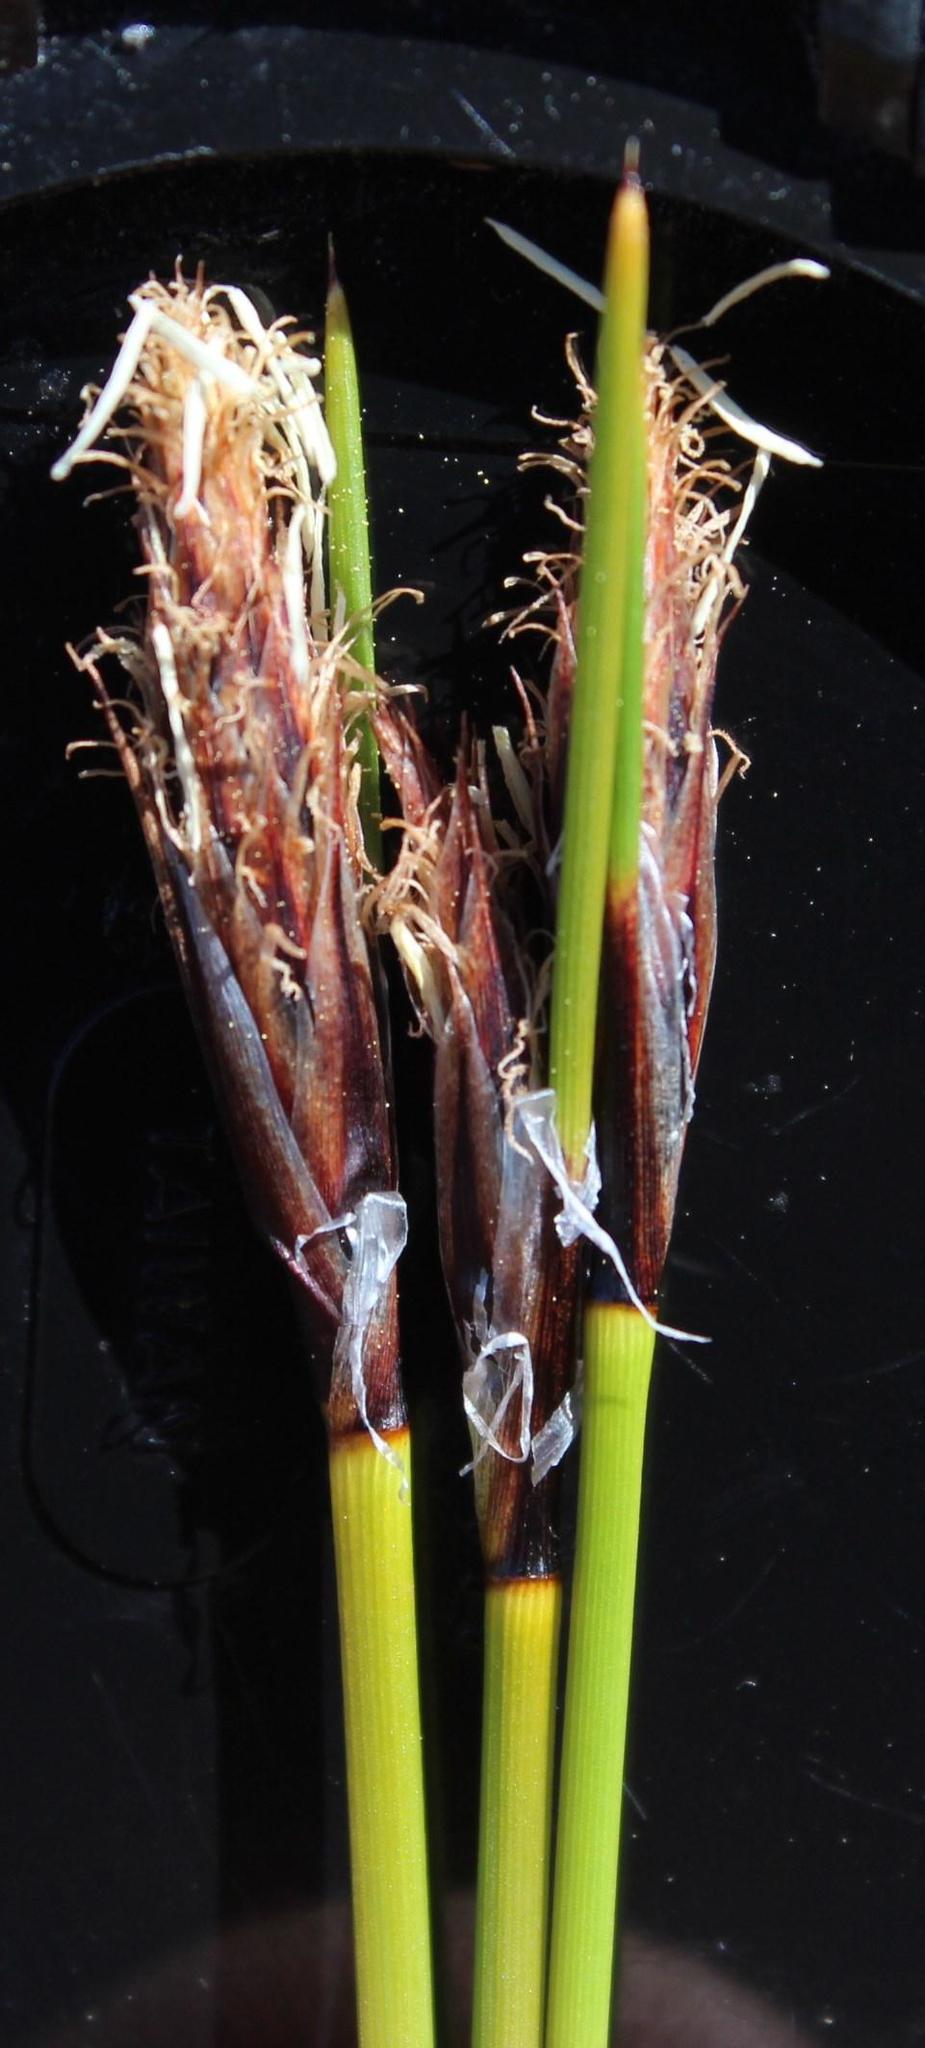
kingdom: Plantae
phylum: Tracheophyta
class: Liliopsida
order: Poales
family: Cyperaceae
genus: Ficinia
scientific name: Ficinia deusta
